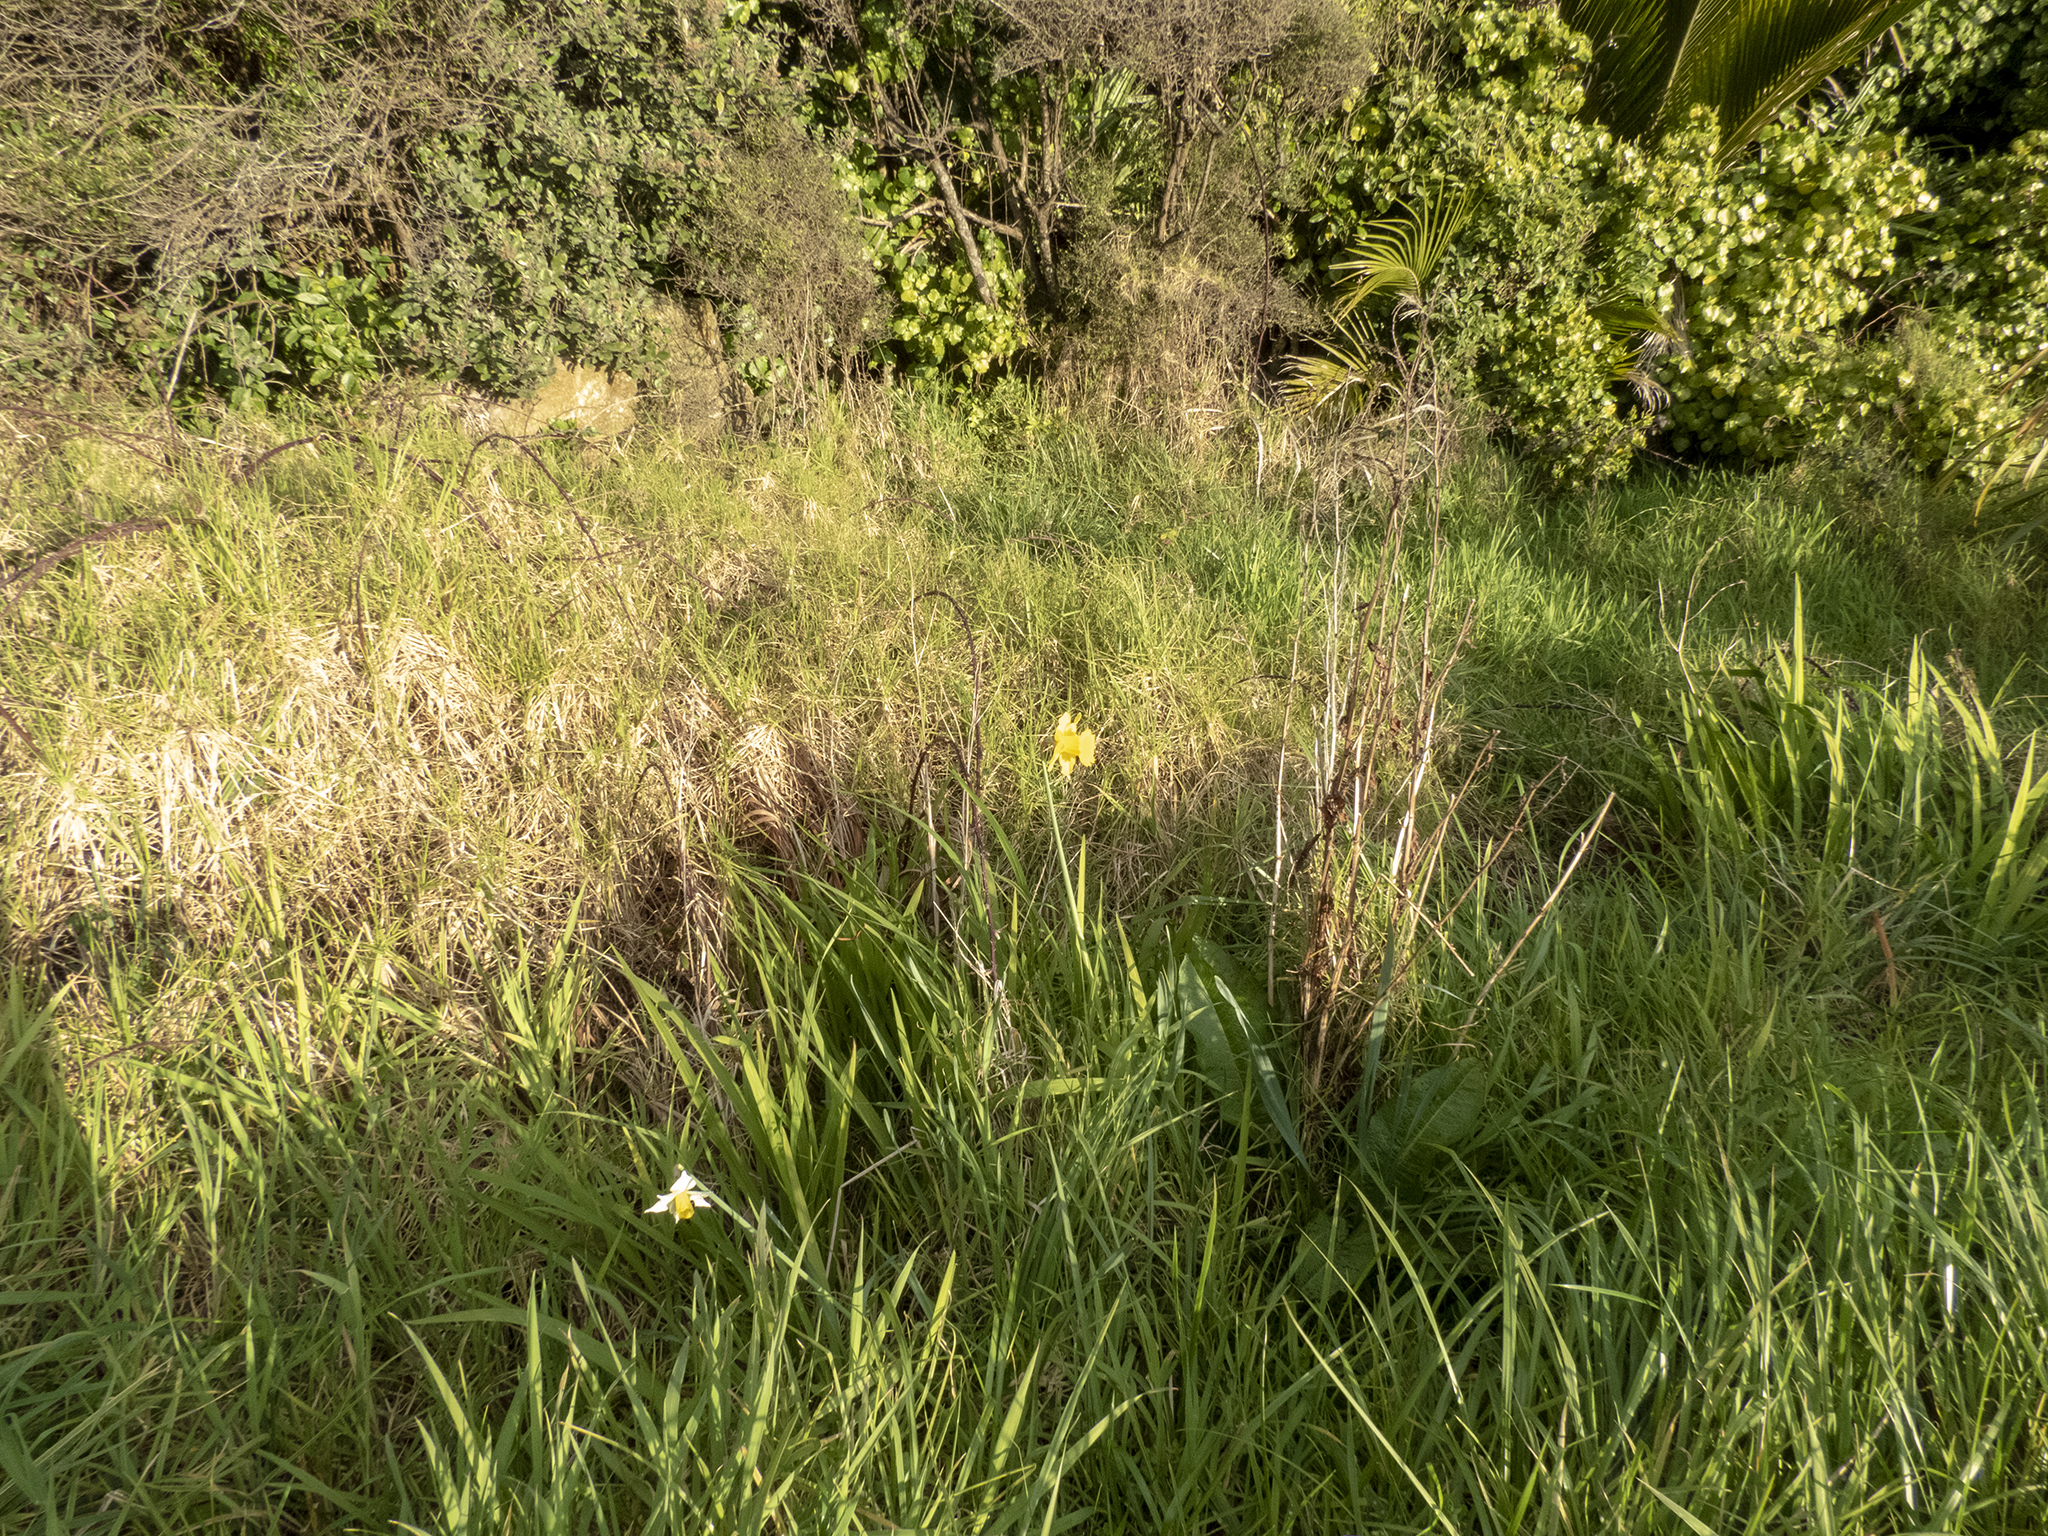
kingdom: Plantae
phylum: Tracheophyta
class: Liliopsida
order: Asparagales
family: Amaryllidaceae
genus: Narcissus
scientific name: Narcissus pseudonarcissus
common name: Daffodil
